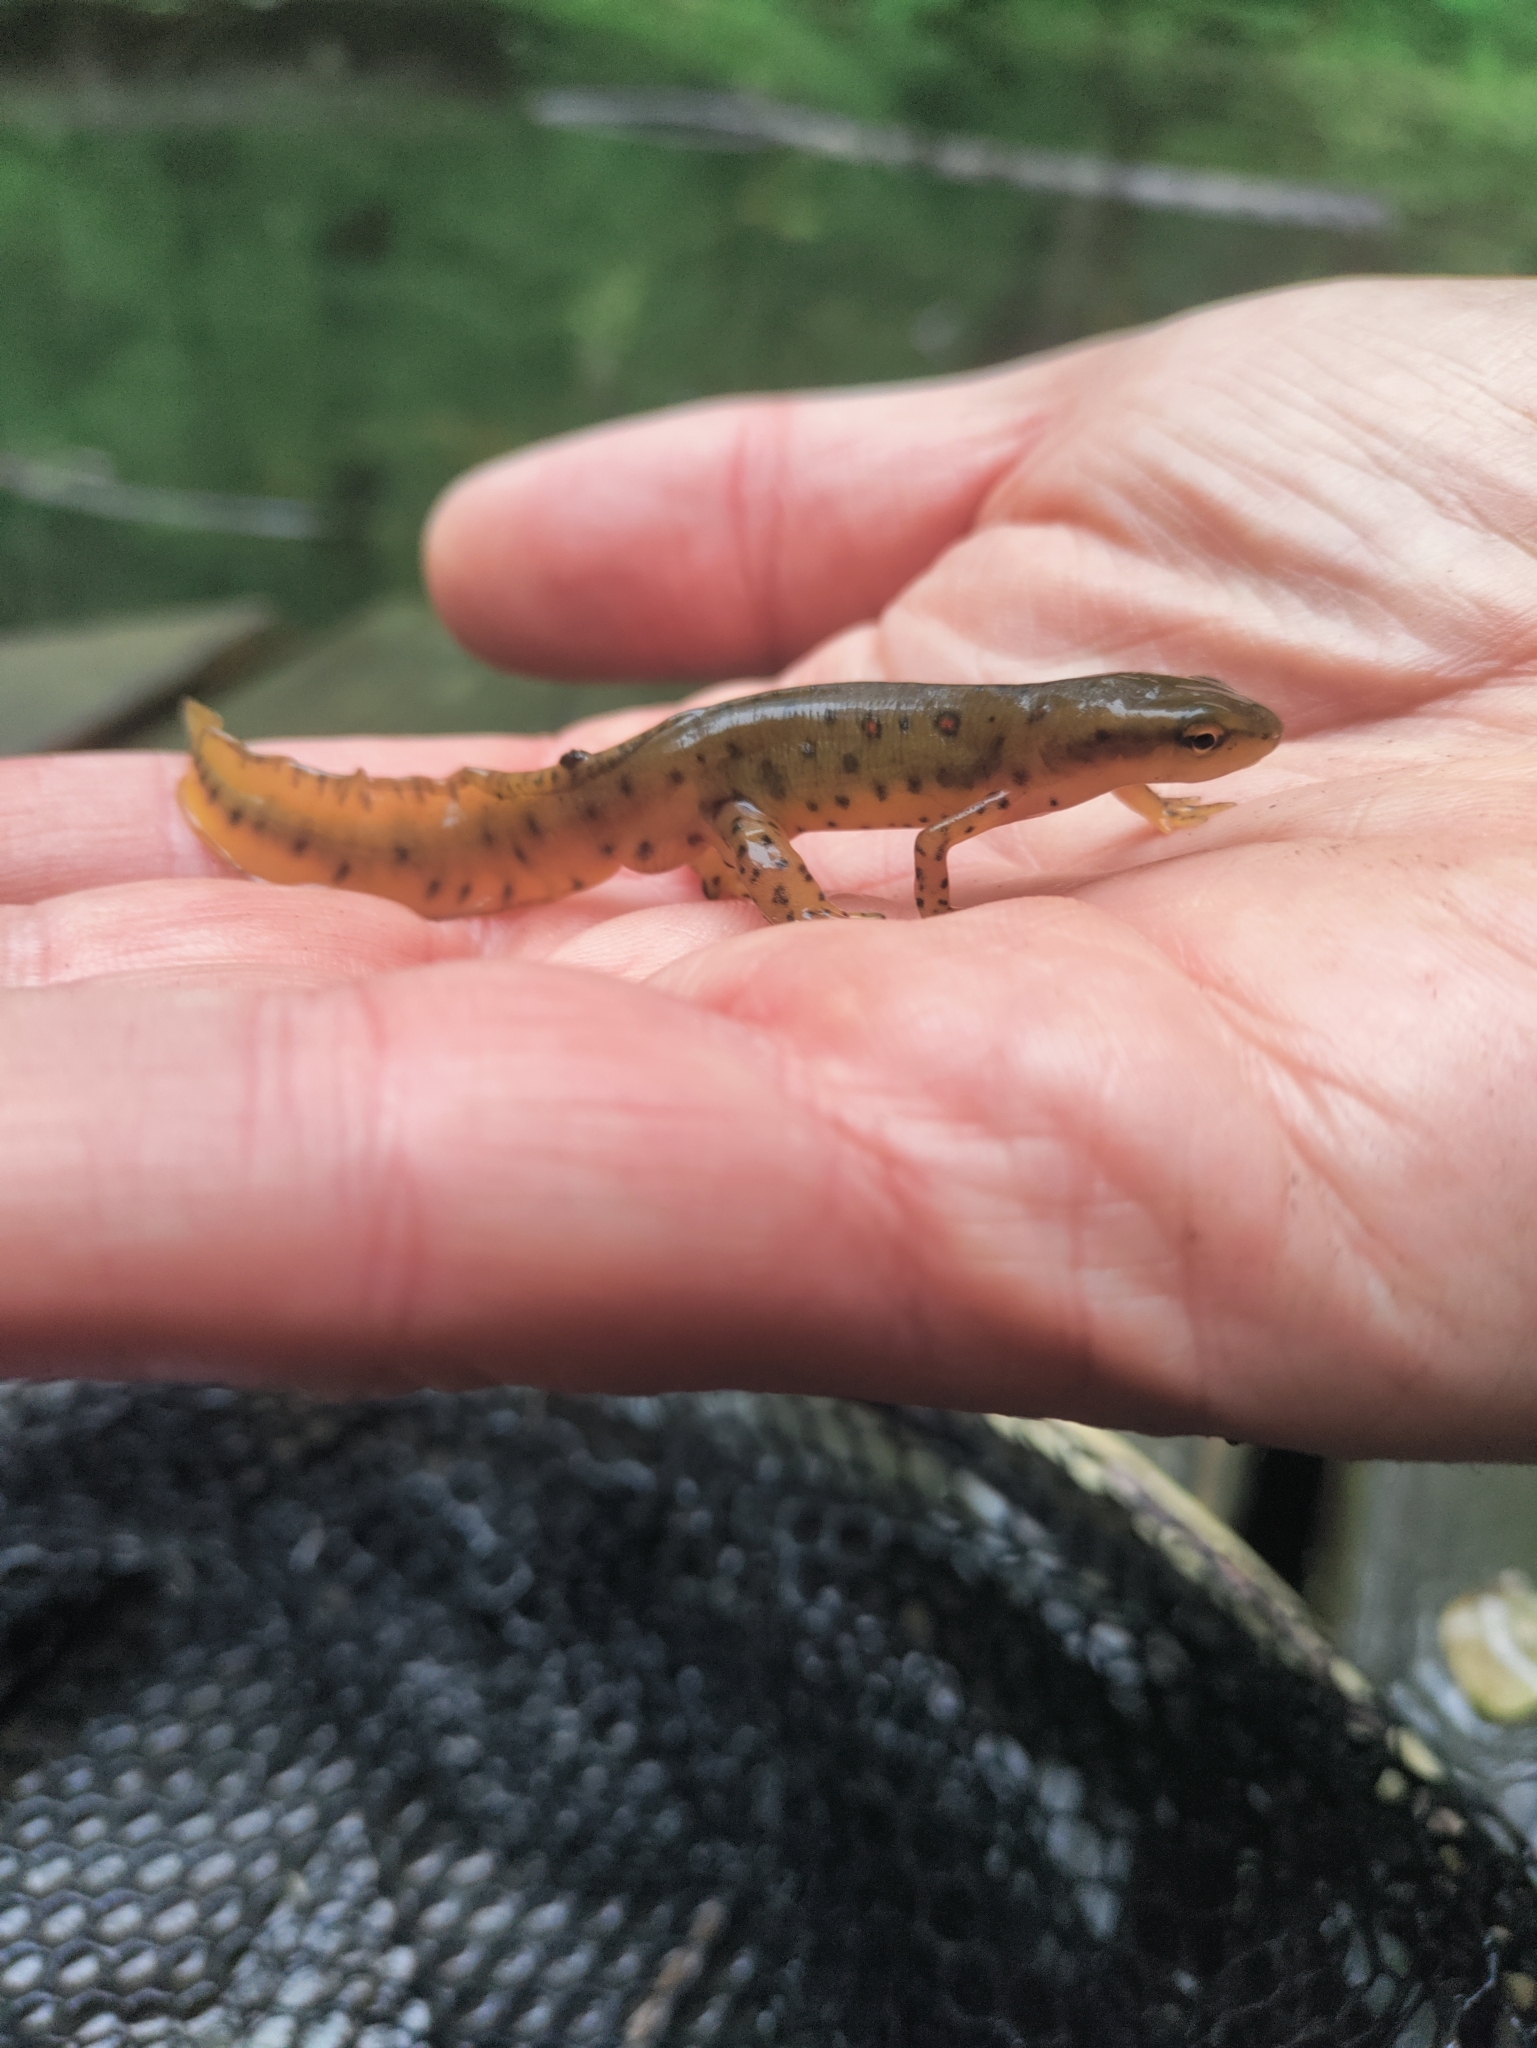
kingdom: Animalia
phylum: Chordata
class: Amphibia
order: Caudata
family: Salamandridae
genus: Notophthalmus
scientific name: Notophthalmus viridescens
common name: Eastern newt
